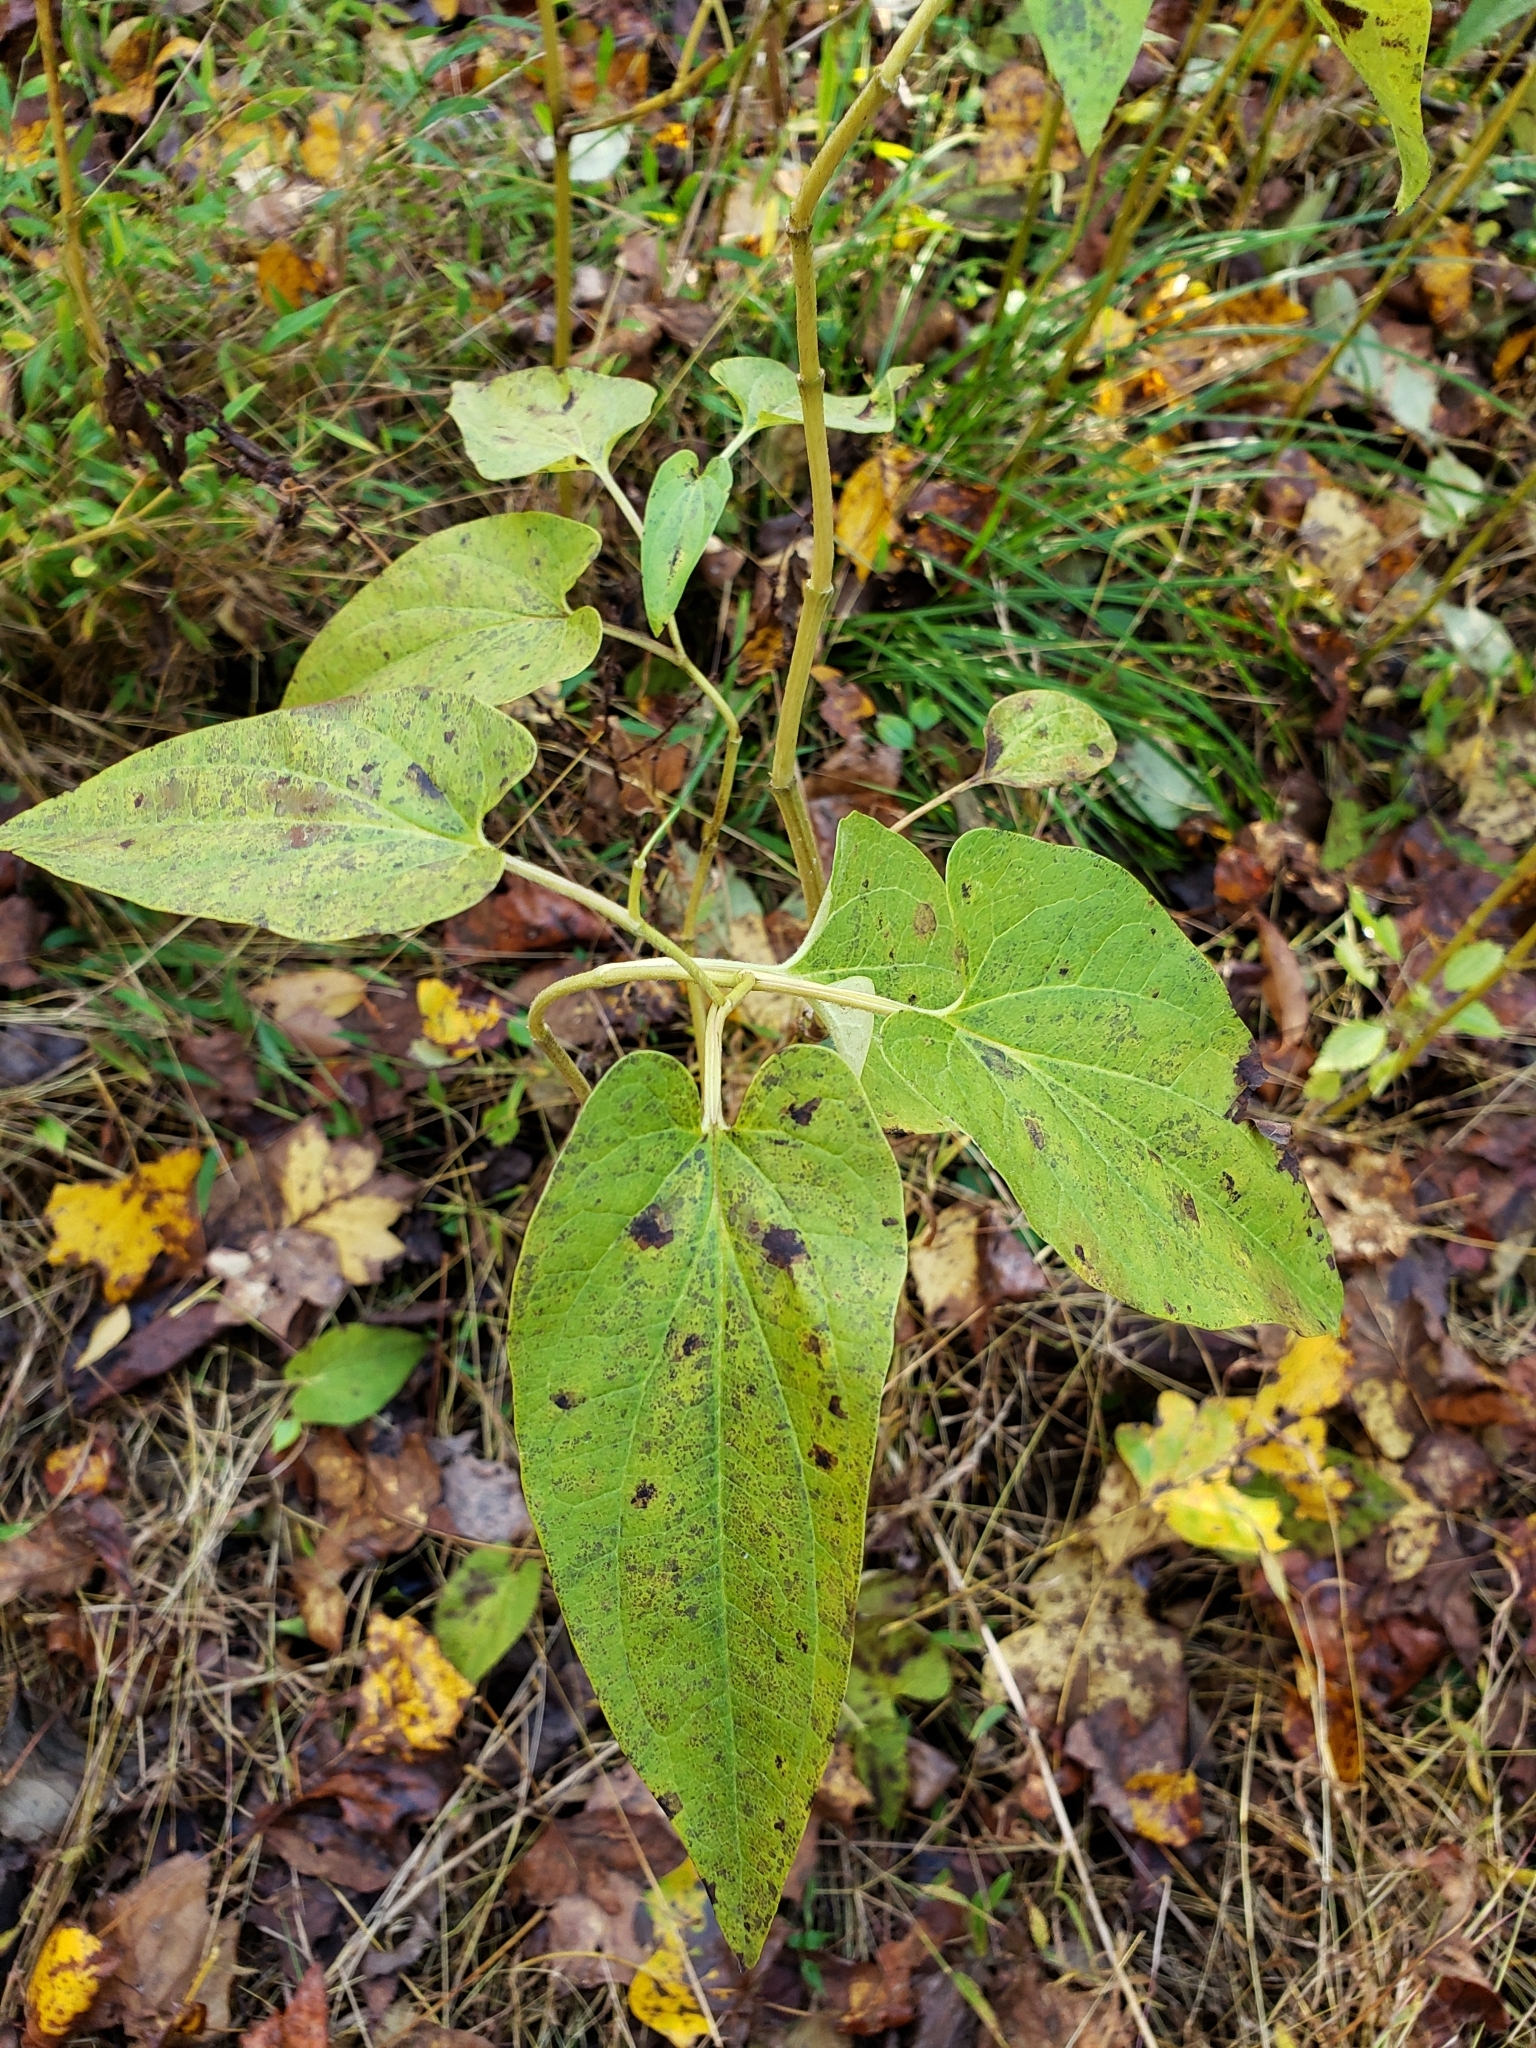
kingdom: Plantae
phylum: Tracheophyta
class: Magnoliopsida
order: Piperales
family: Saururaceae
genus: Saururus
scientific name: Saururus cernuus
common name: Lizard's-tail
